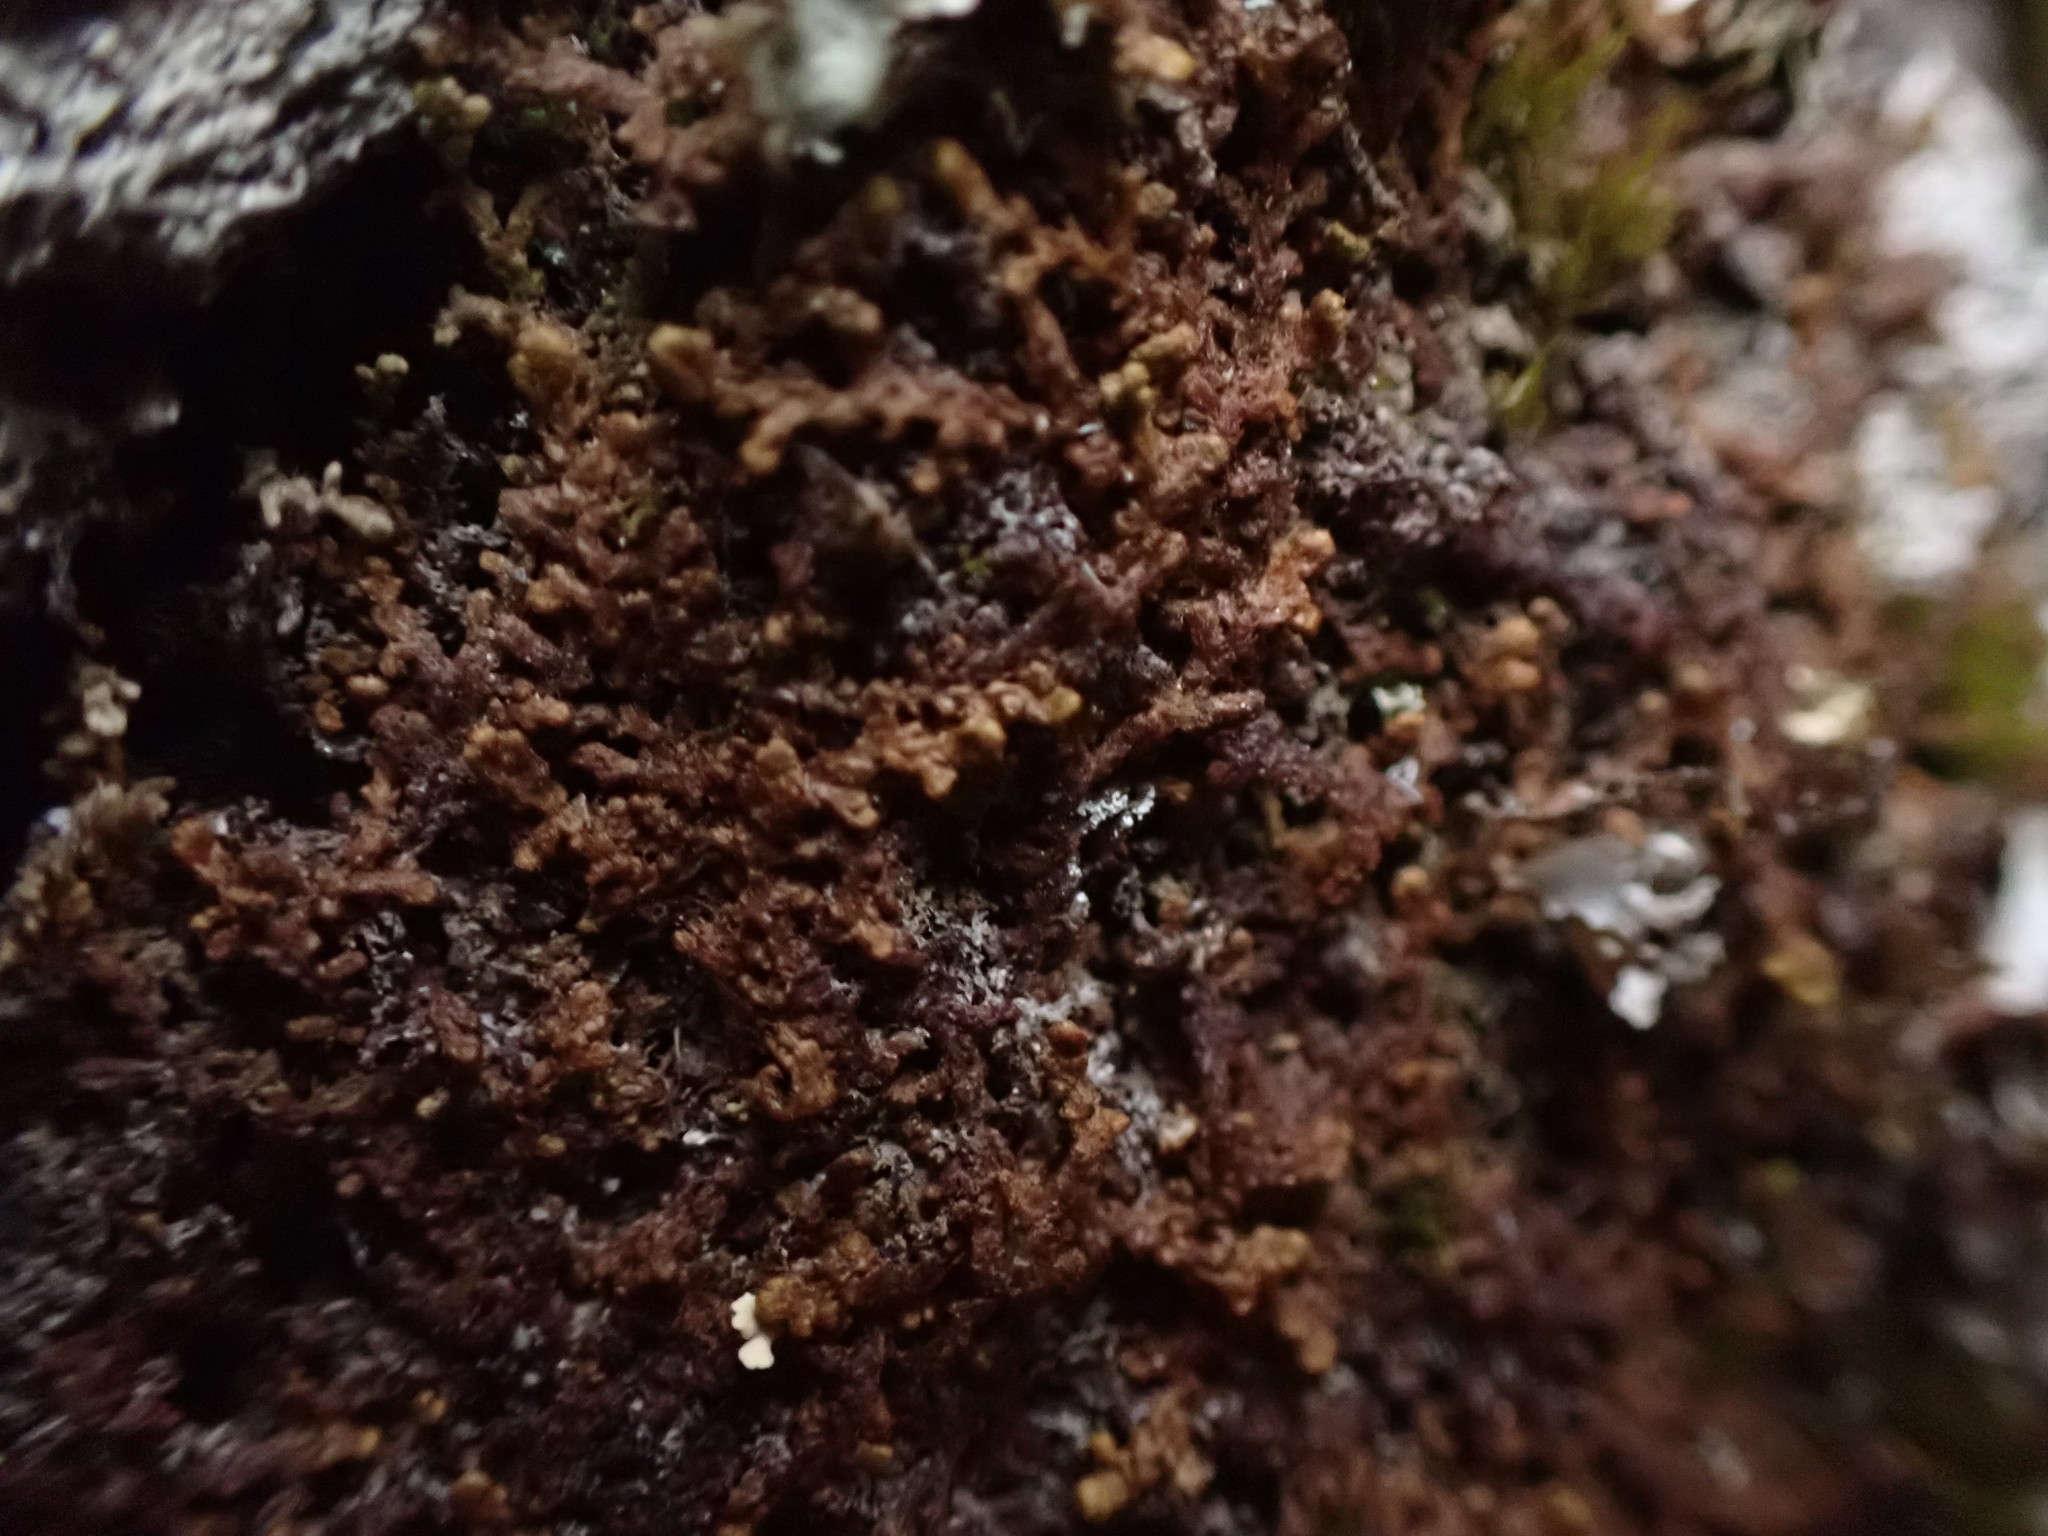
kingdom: Plantae
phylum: Marchantiophyta
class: Jungermanniopsida
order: Ptilidiales
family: Ptilidiaceae
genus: Ptilidium
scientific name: Ptilidium ciliare
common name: Ciliate fringewort
